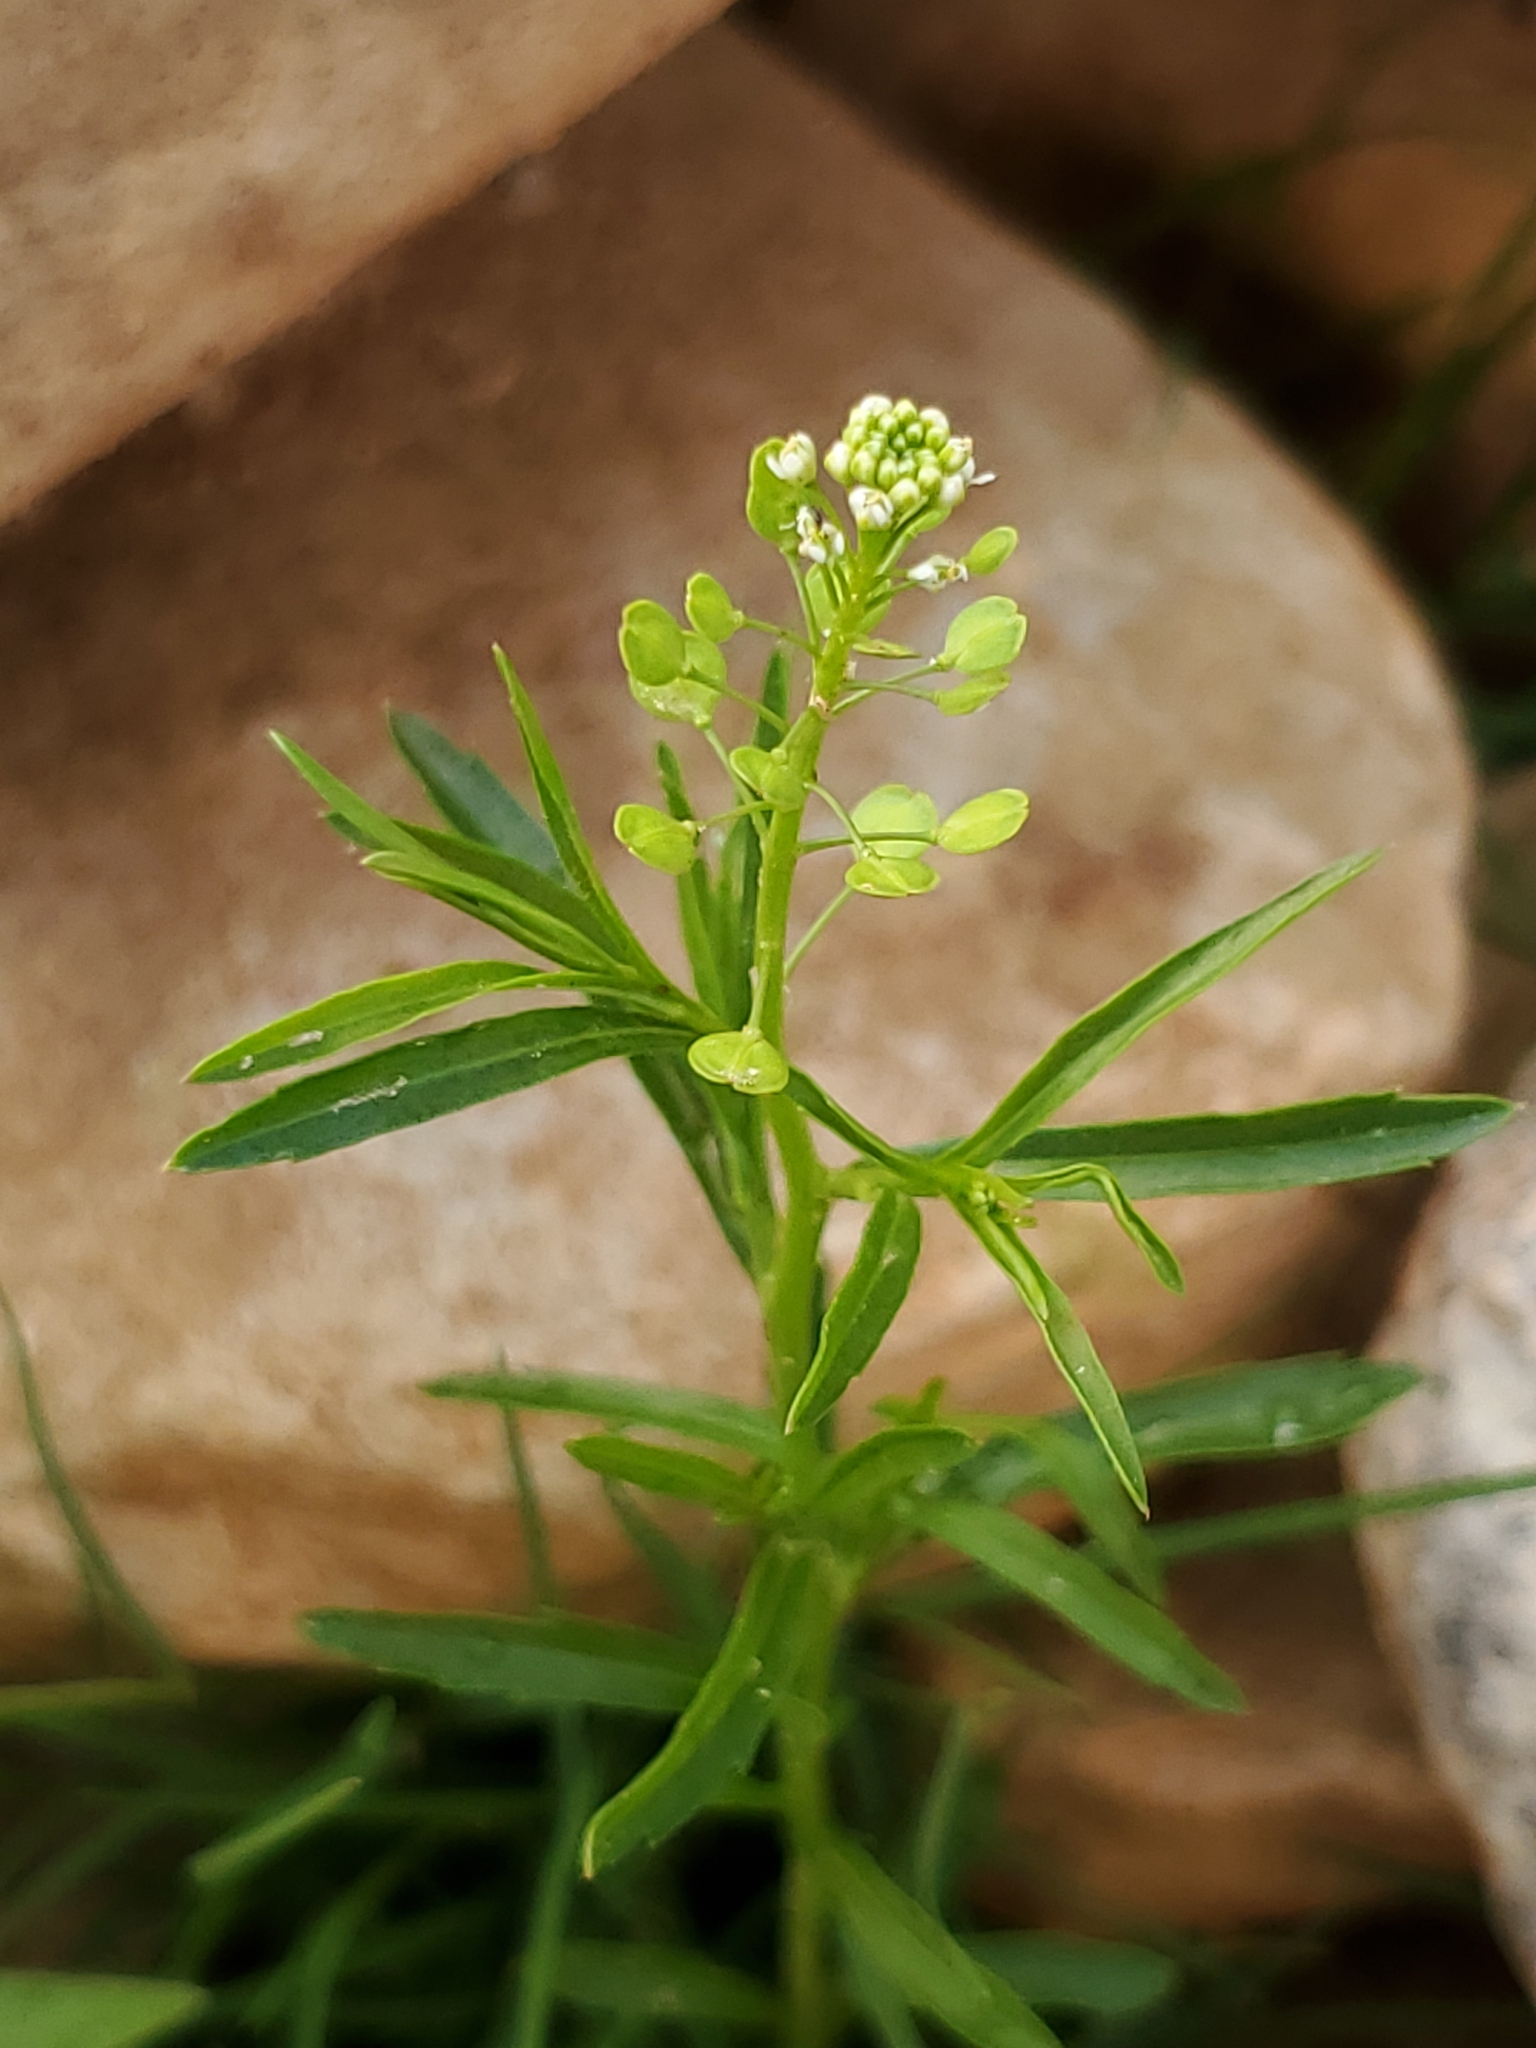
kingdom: Plantae
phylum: Tracheophyta
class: Magnoliopsida
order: Brassicales
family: Brassicaceae
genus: Lepidium
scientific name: Lepidium virginicum
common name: Least pepperwort
